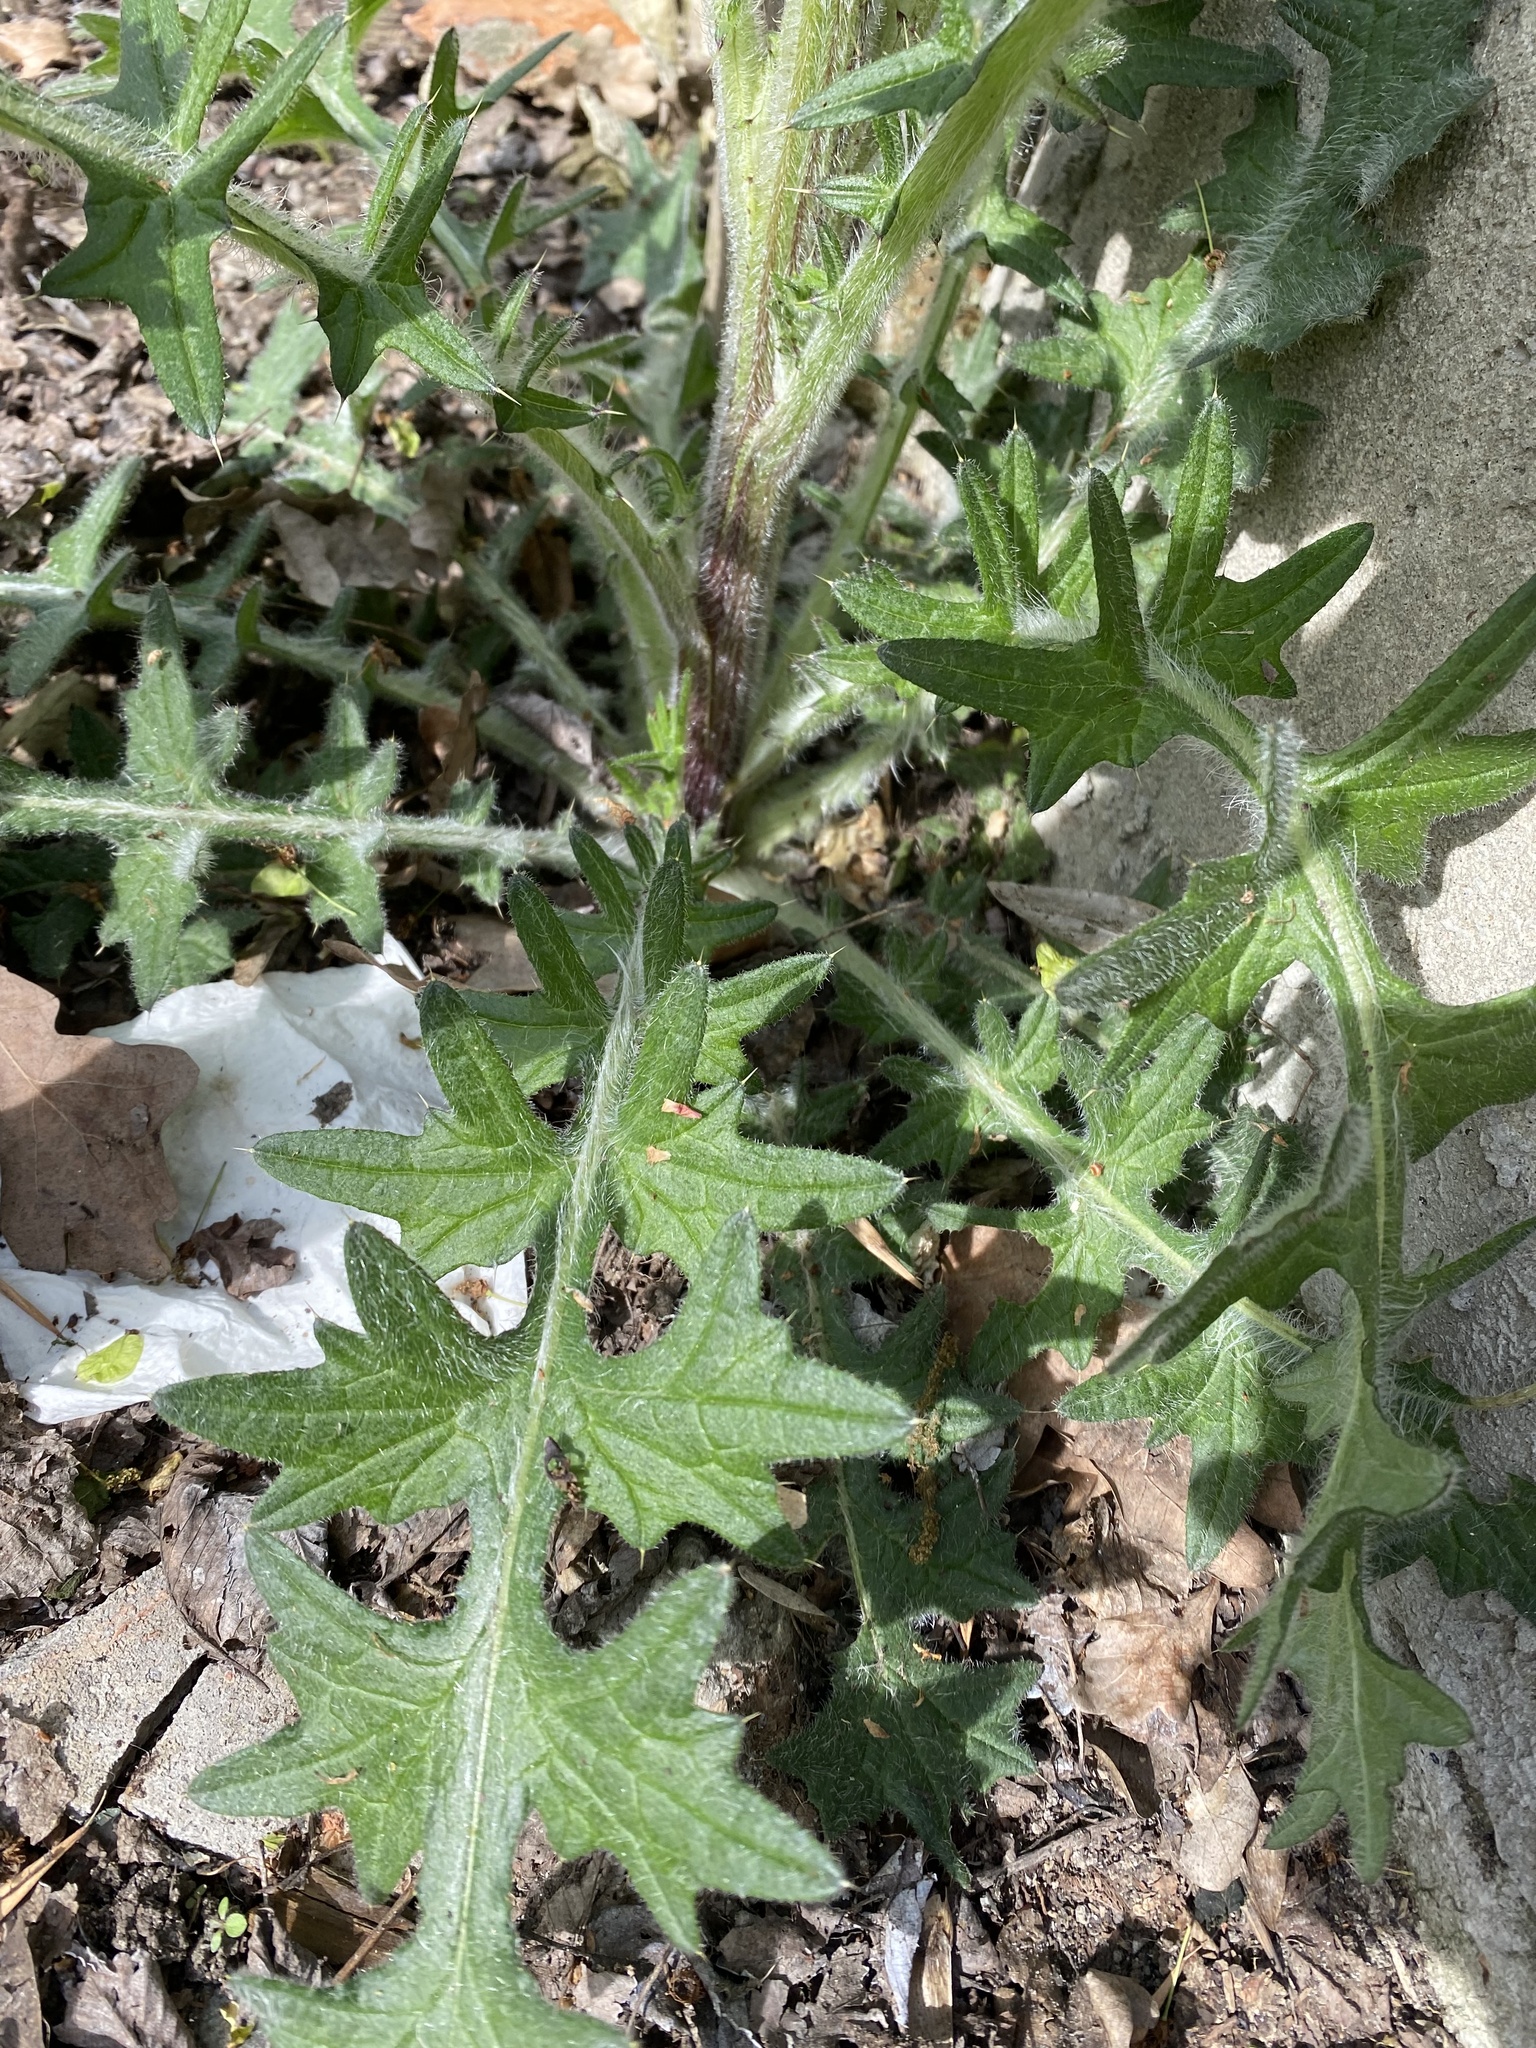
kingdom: Plantae
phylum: Tracheophyta
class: Magnoliopsida
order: Asterales
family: Asteraceae
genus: Cirsium
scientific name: Cirsium vulgare
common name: Bull thistle
